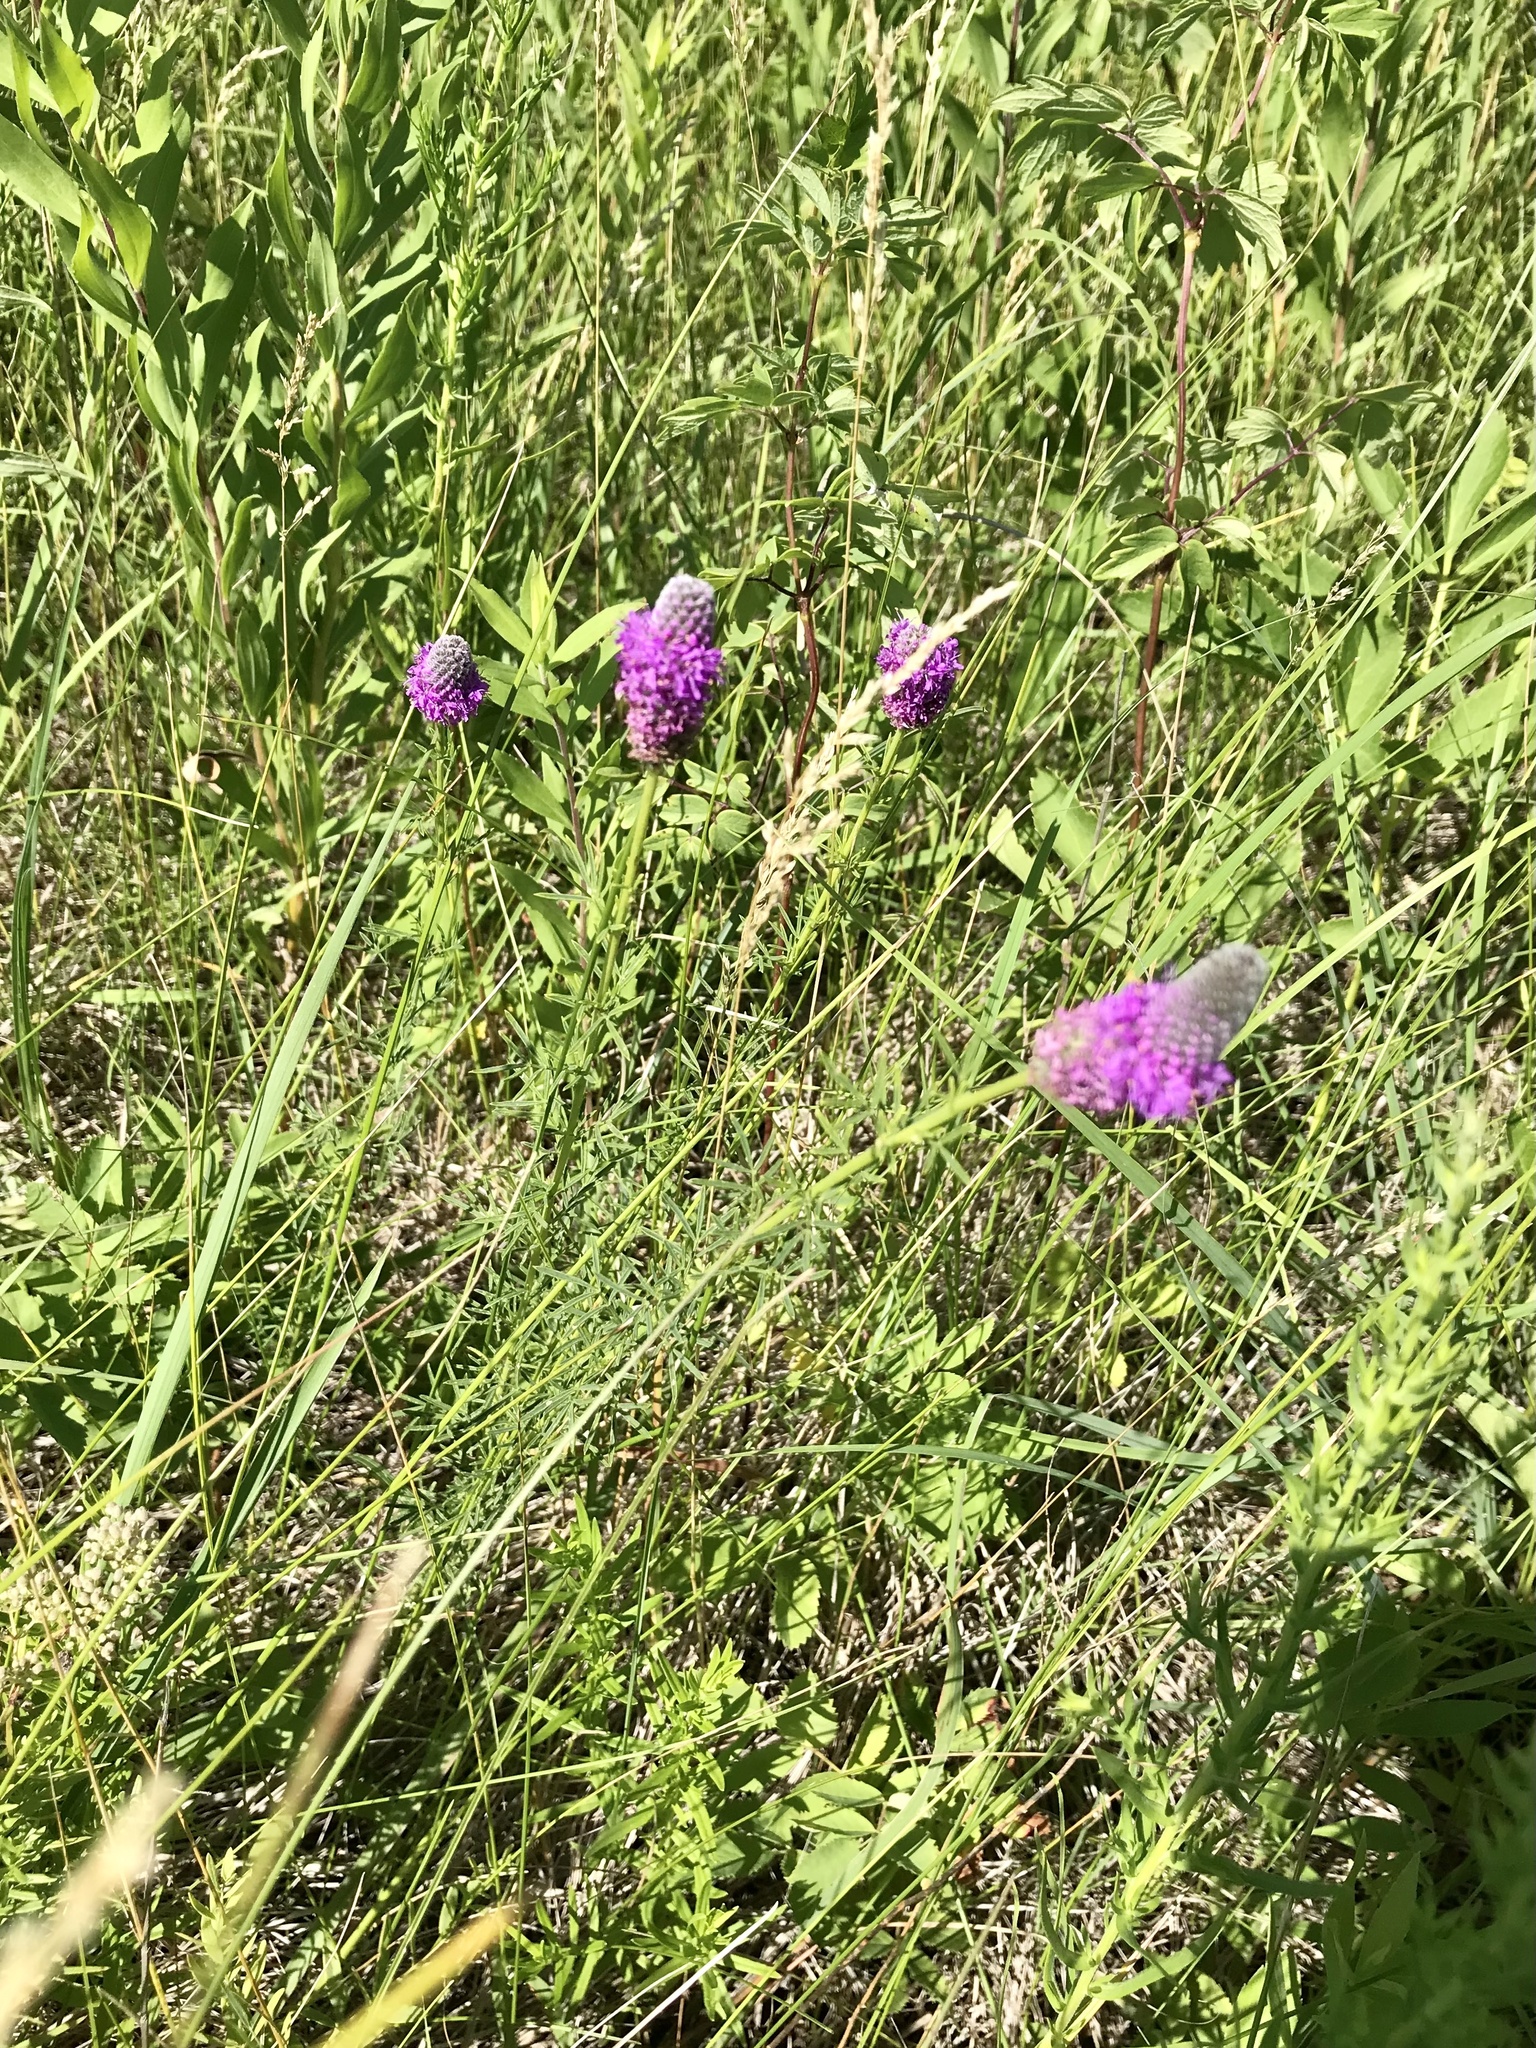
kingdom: Plantae
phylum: Tracheophyta
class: Magnoliopsida
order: Fabales
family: Fabaceae
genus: Dalea
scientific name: Dalea purpurea
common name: Purple prairie-clover
